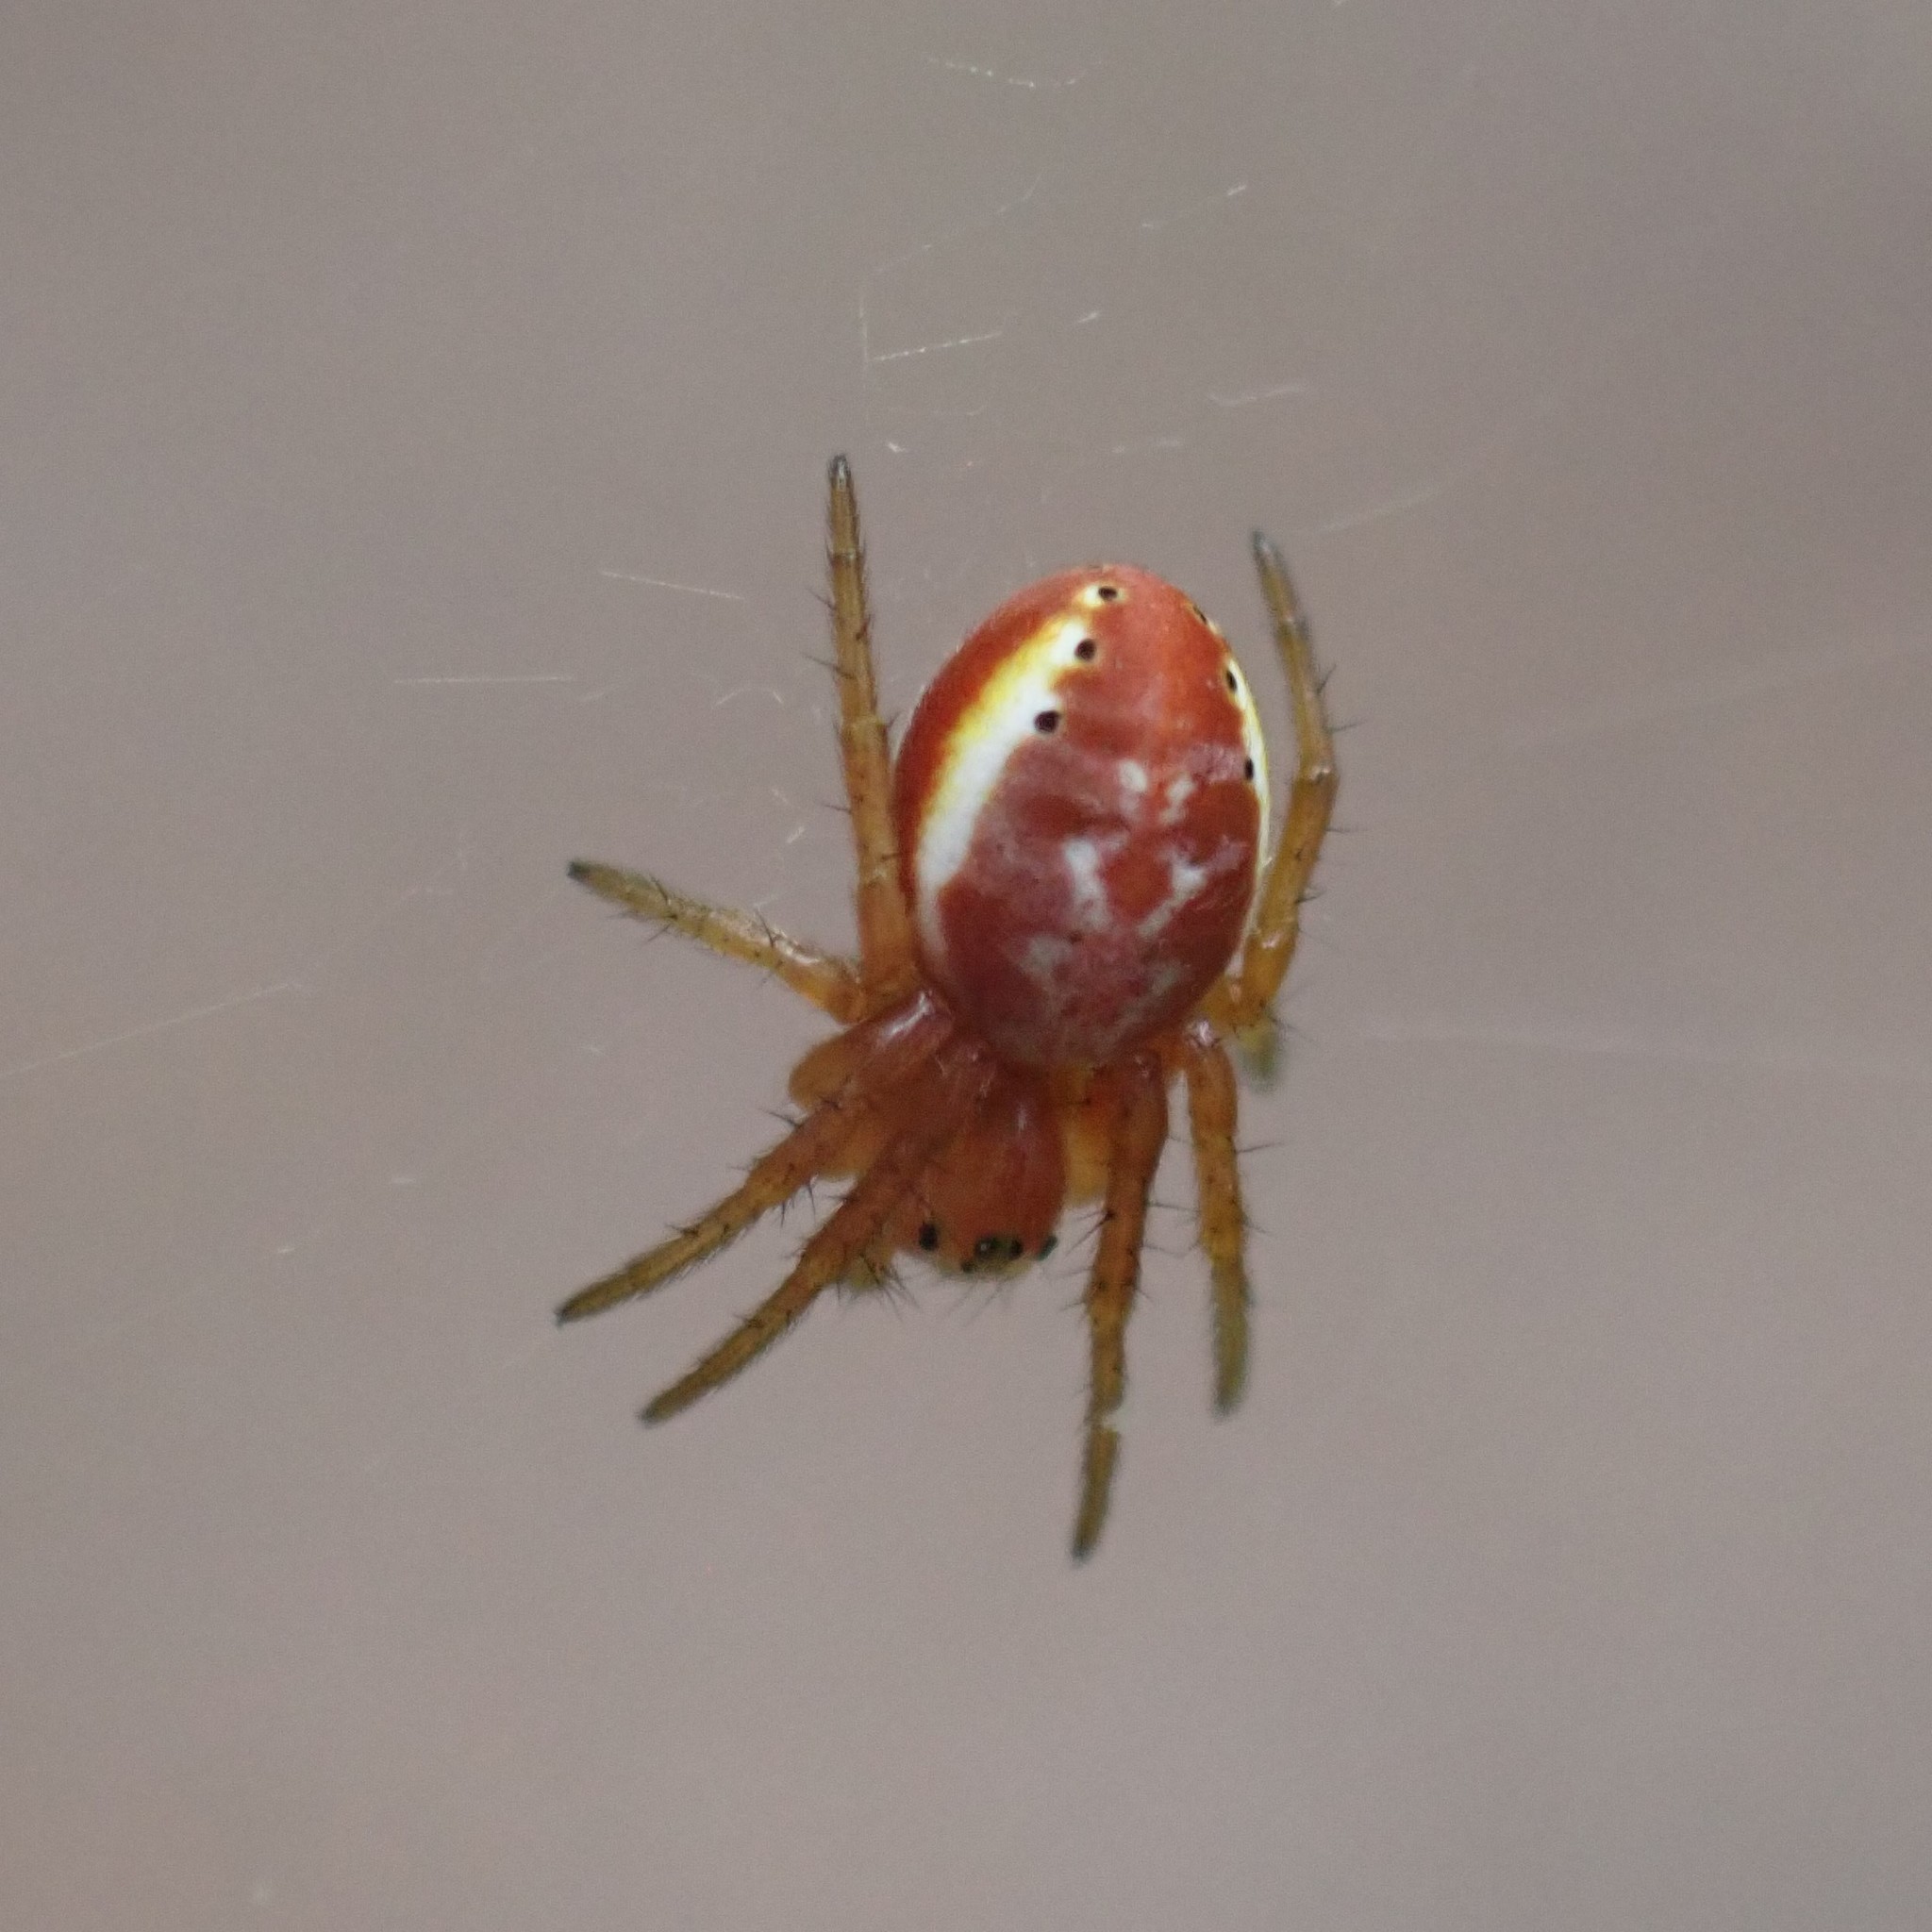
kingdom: Animalia
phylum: Arthropoda
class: Arachnida
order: Araneae
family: Araneidae
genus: Araniella
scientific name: Araniella displicata
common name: Sixspotted orb weaver
